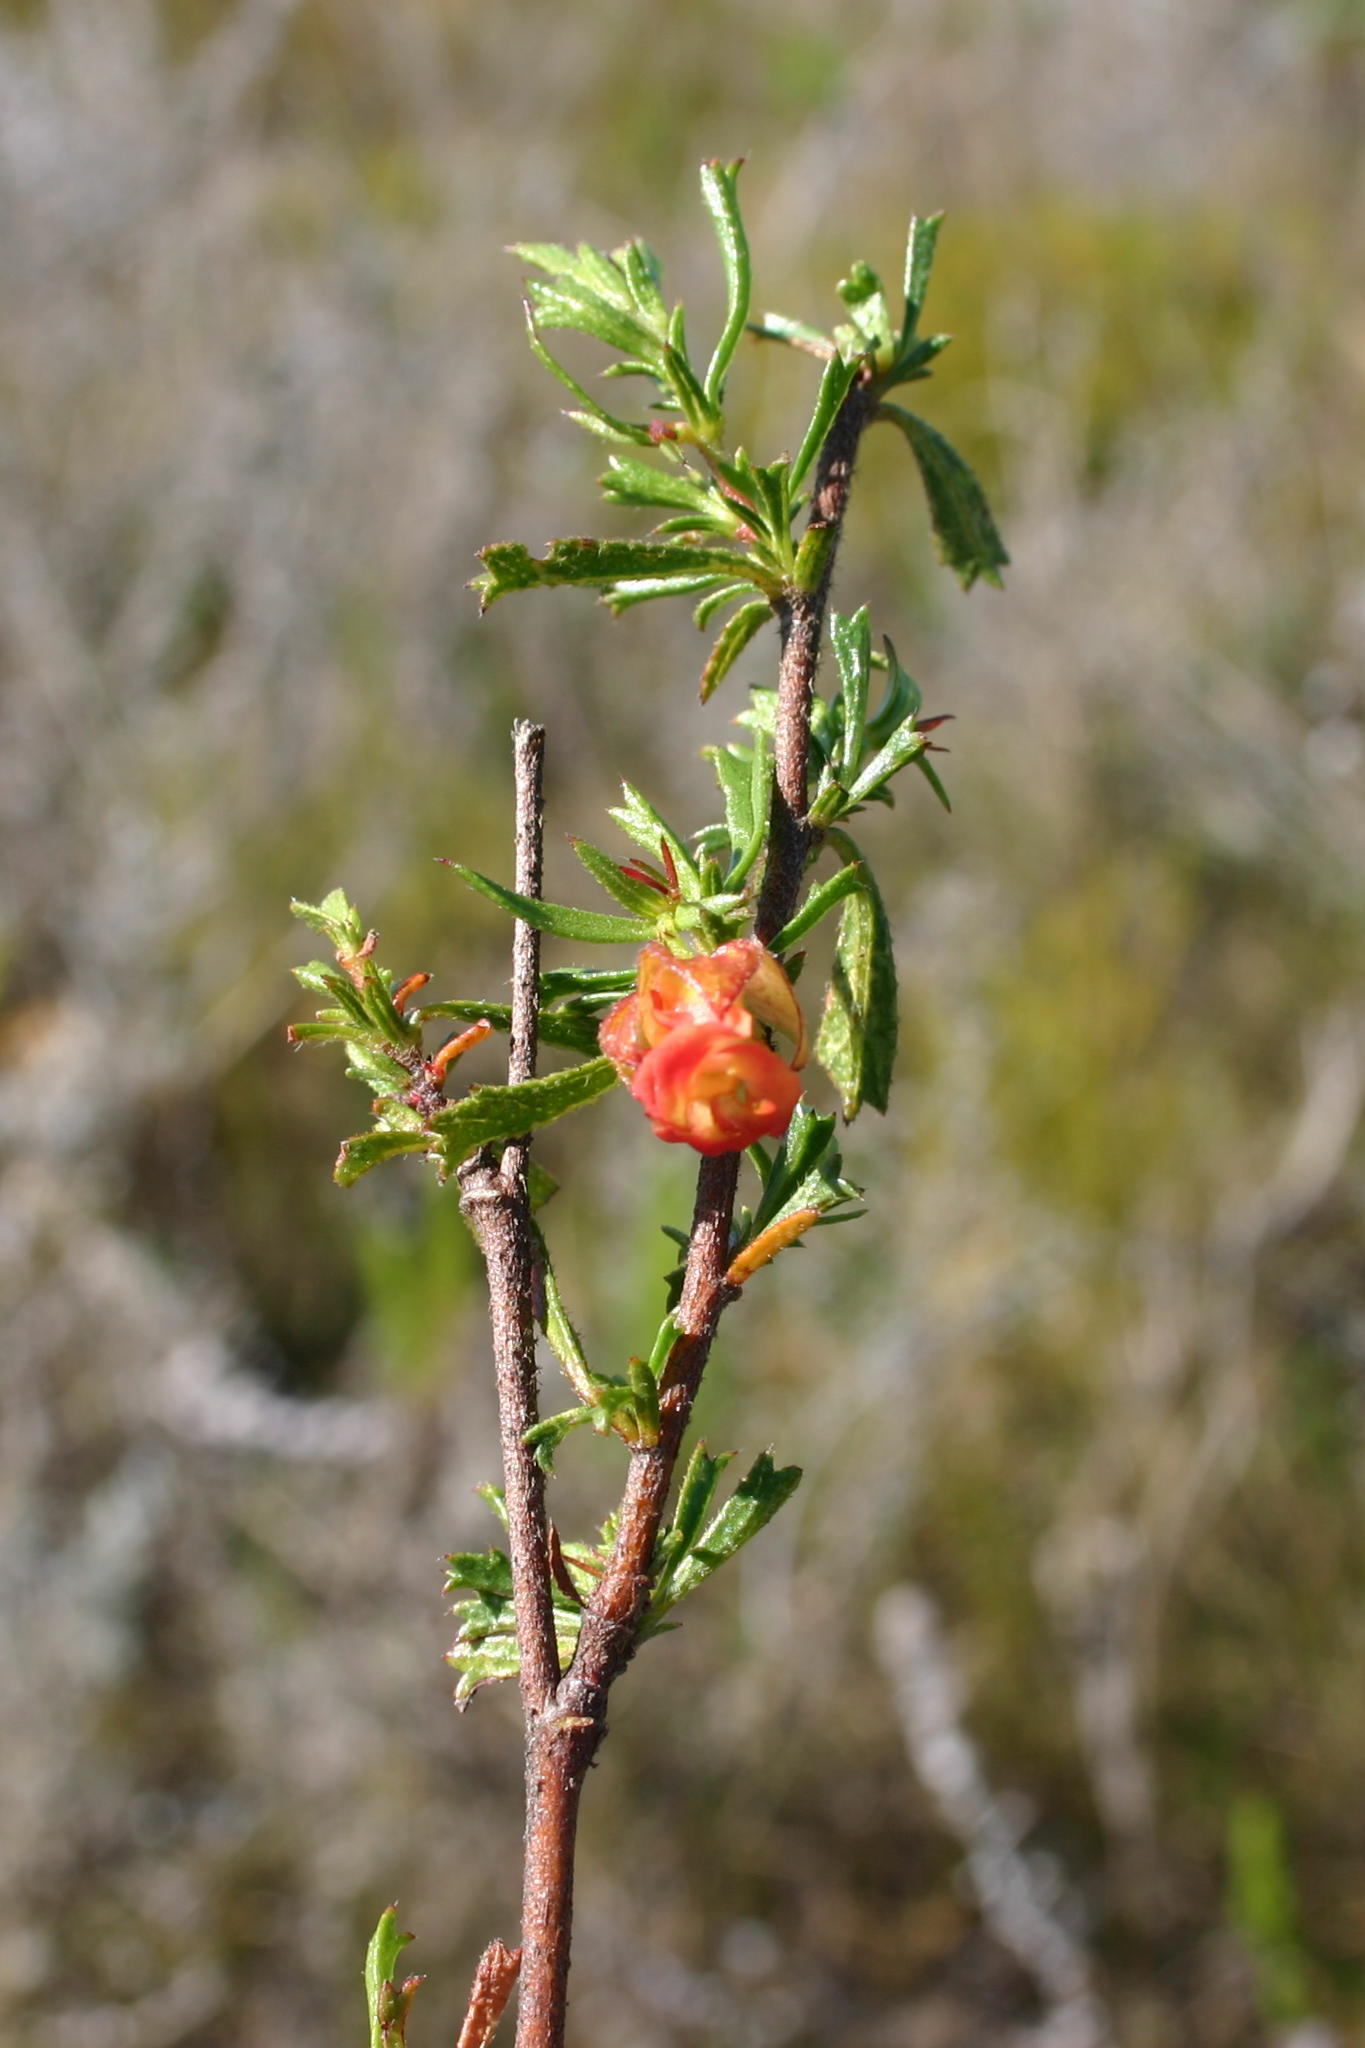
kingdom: Plantae
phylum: Tracheophyta
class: Magnoliopsida
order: Malvales
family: Malvaceae
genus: Hermannia
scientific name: Hermannia angularis
